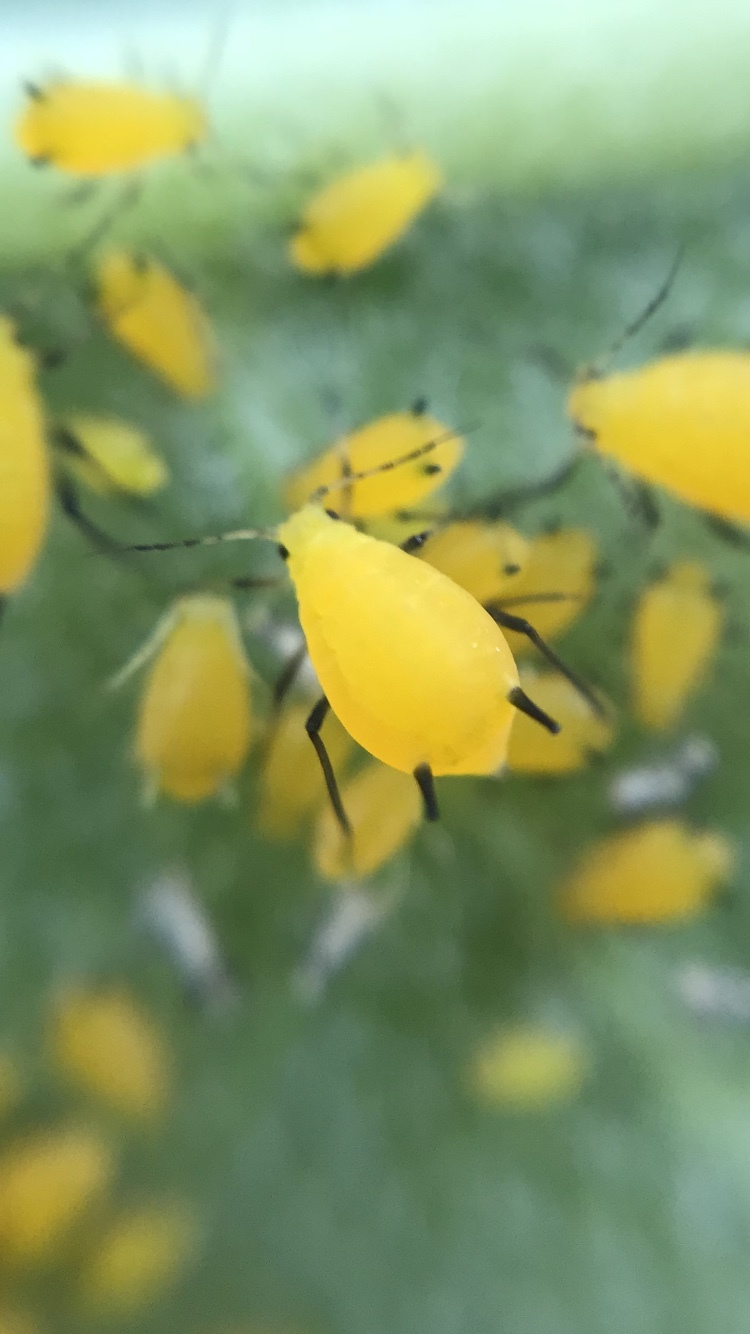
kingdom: Animalia
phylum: Arthropoda
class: Insecta
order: Hemiptera
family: Aphididae
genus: Aphis
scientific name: Aphis nerii
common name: Oleander aphid
